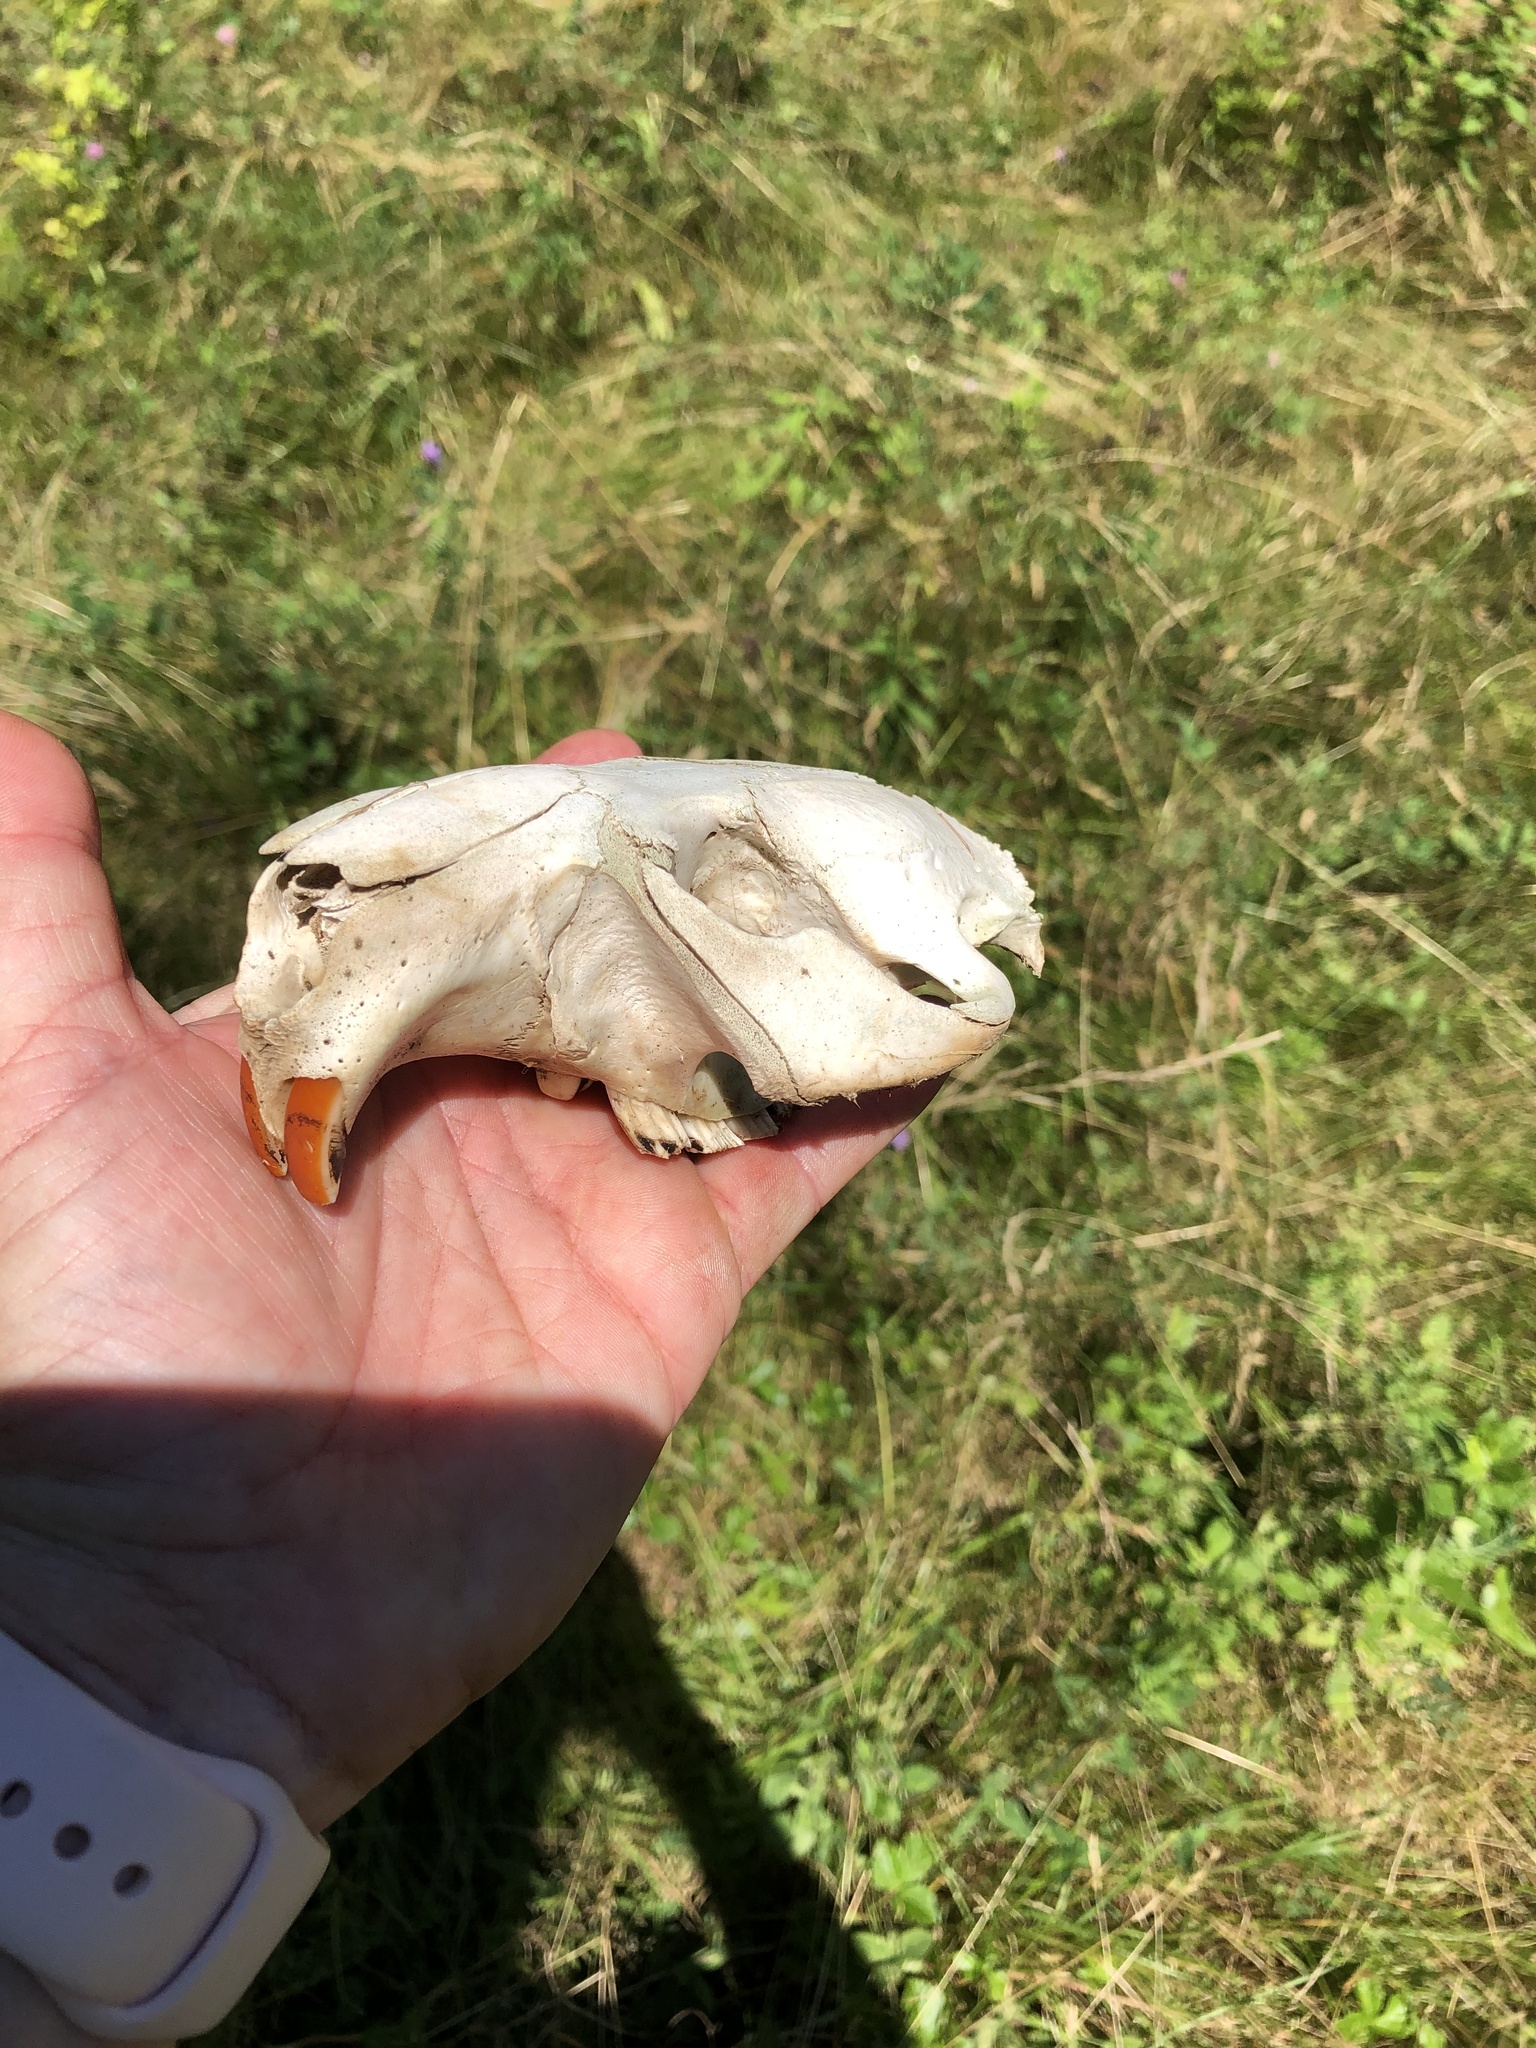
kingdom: Animalia
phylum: Chordata
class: Mammalia
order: Rodentia
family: Castoridae
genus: Castor
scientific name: Castor canadensis
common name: American beaver
